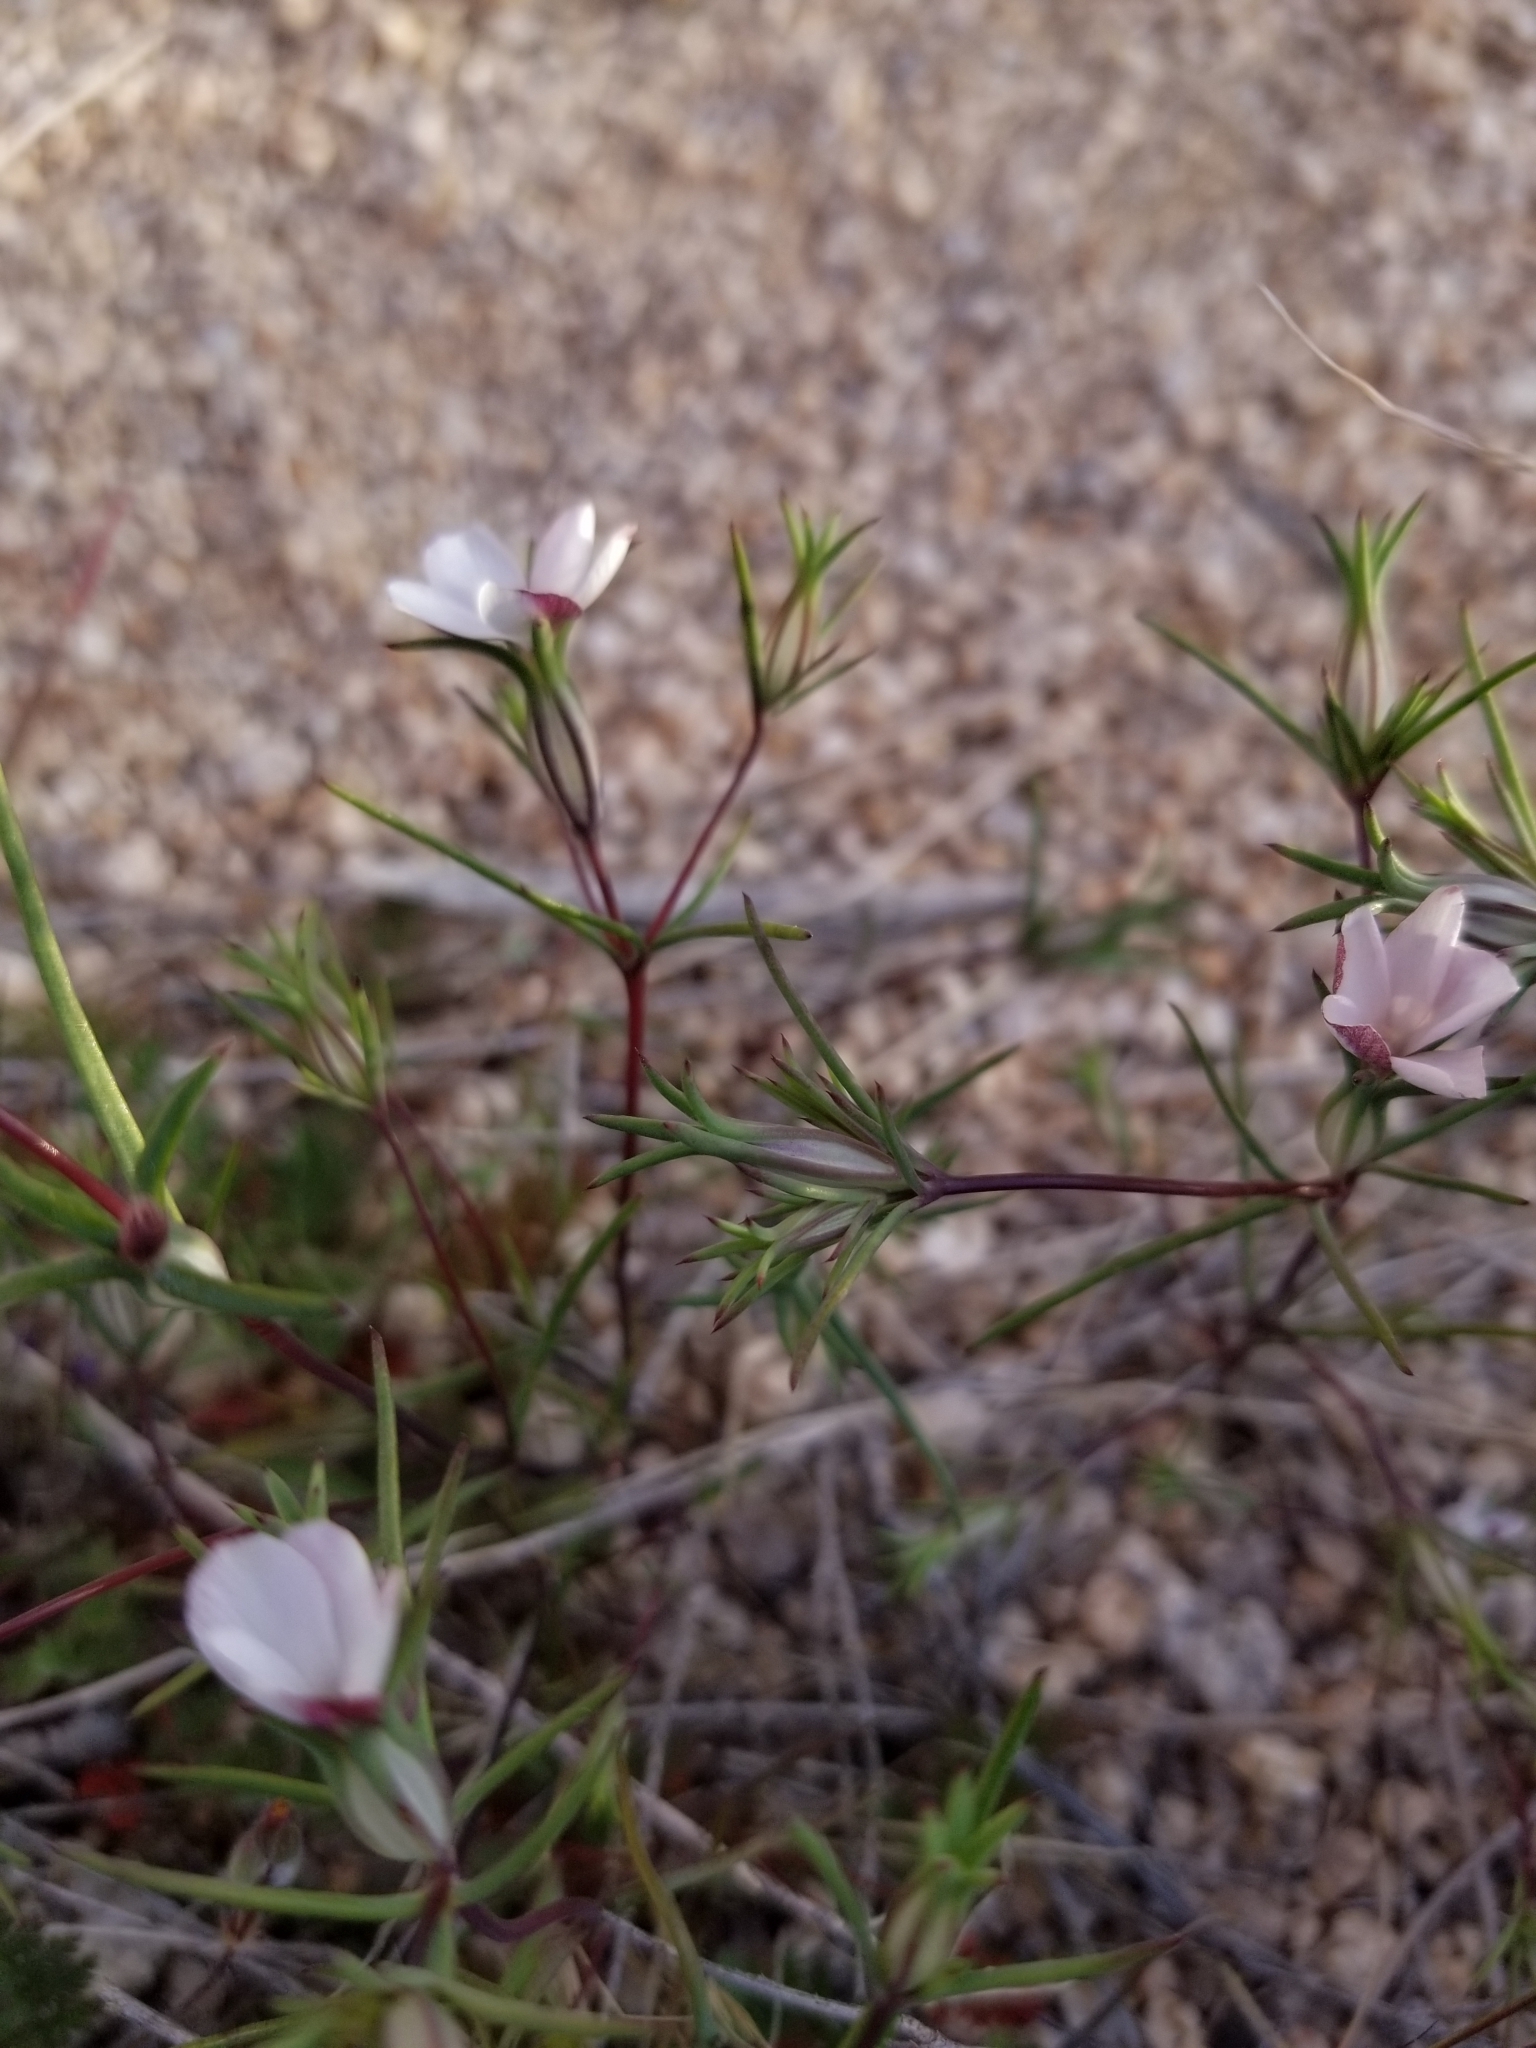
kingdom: Plantae
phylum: Tracheophyta
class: Magnoliopsida
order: Ericales
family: Polemoniaceae
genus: Linanthus
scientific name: Linanthus dichotomus
